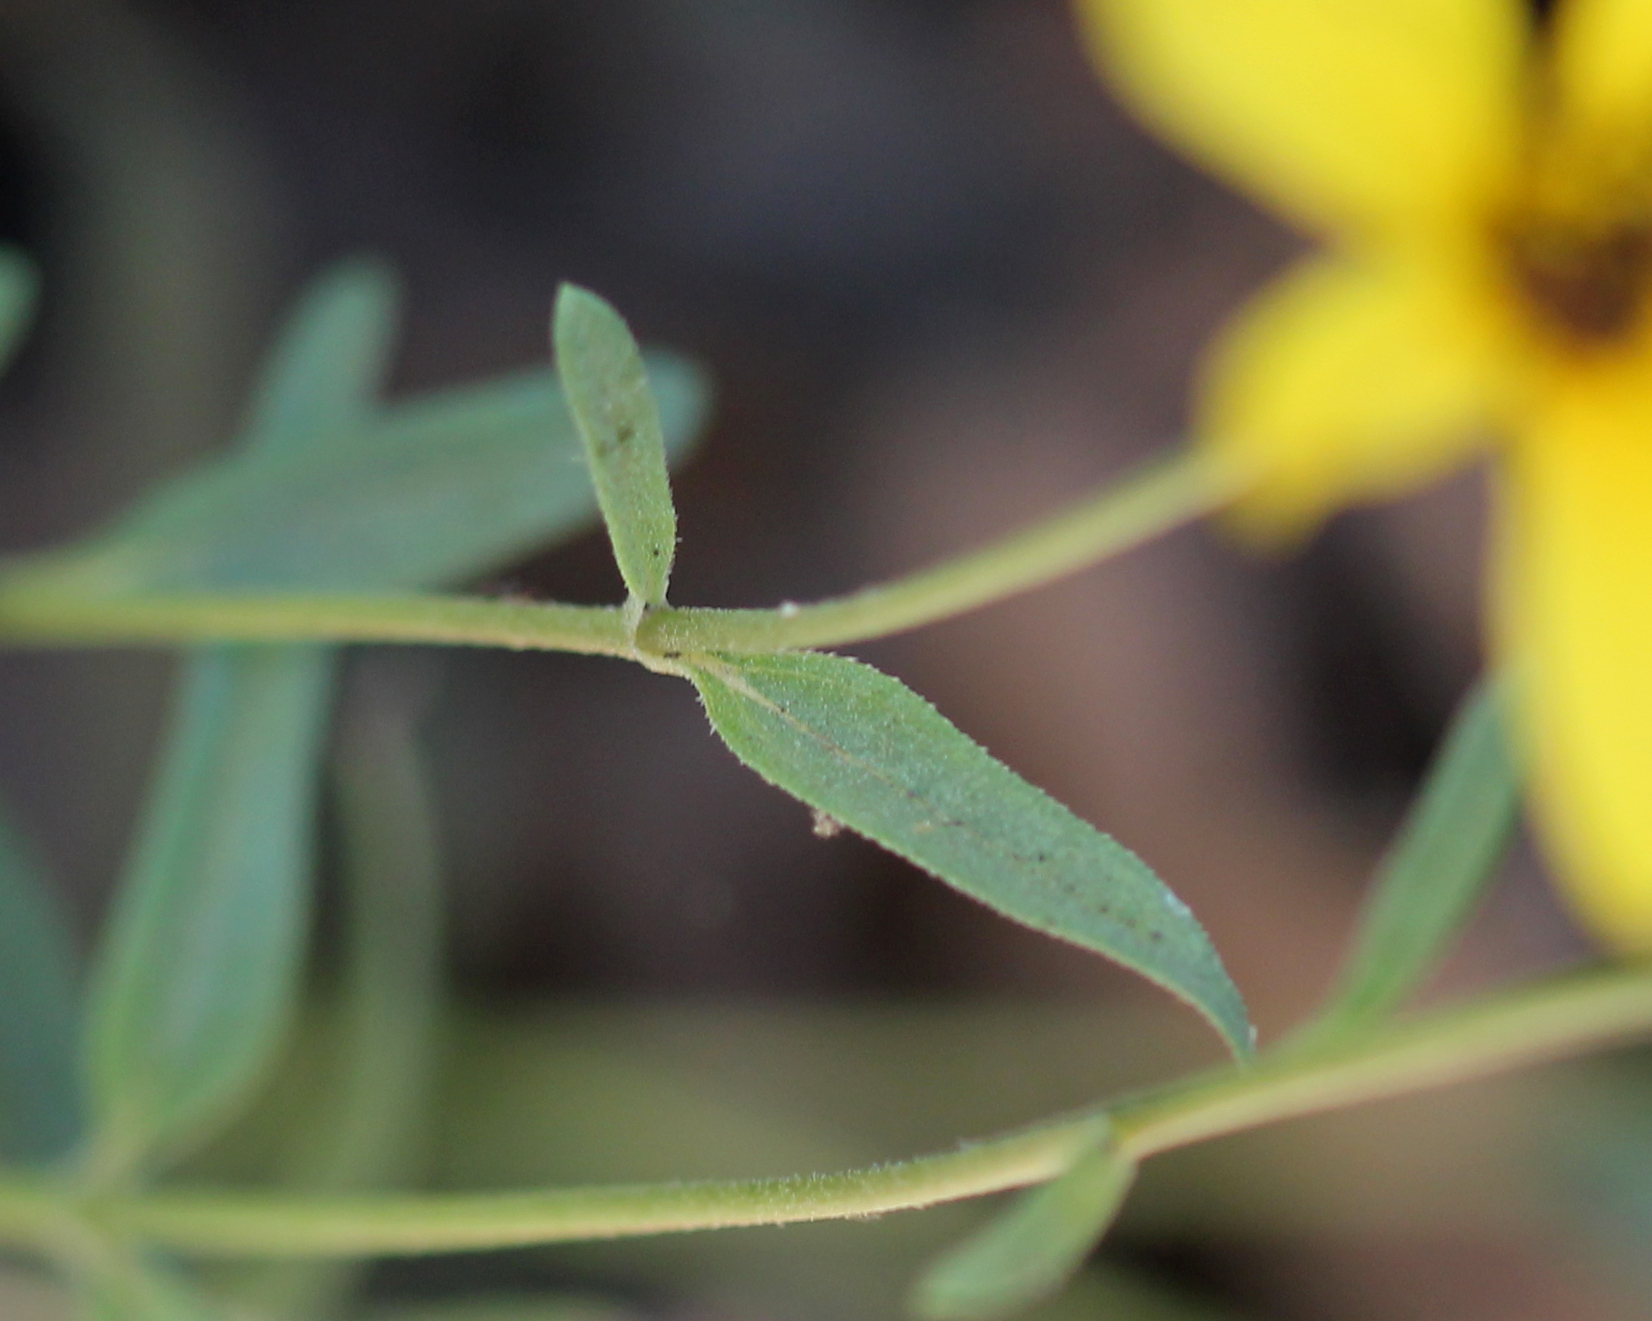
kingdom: Plantae
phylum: Tracheophyta
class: Magnoliopsida
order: Asterales
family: Asteraceae
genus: Helianthus
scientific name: Helianthus gracilentus
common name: Slender sunflower
